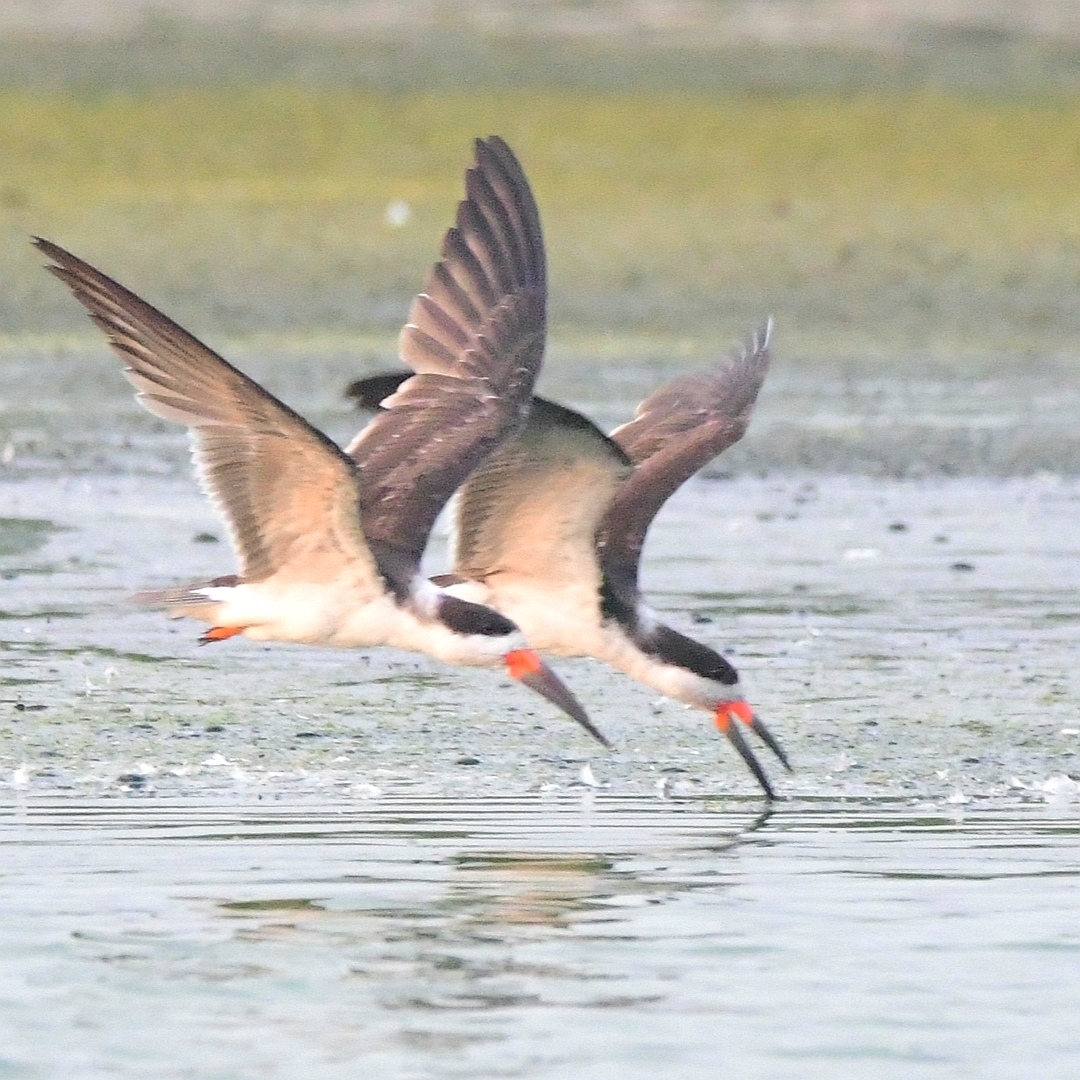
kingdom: Animalia
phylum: Chordata
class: Aves
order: Charadriiformes
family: Laridae
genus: Rynchops
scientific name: Rynchops niger
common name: Black skimmer
